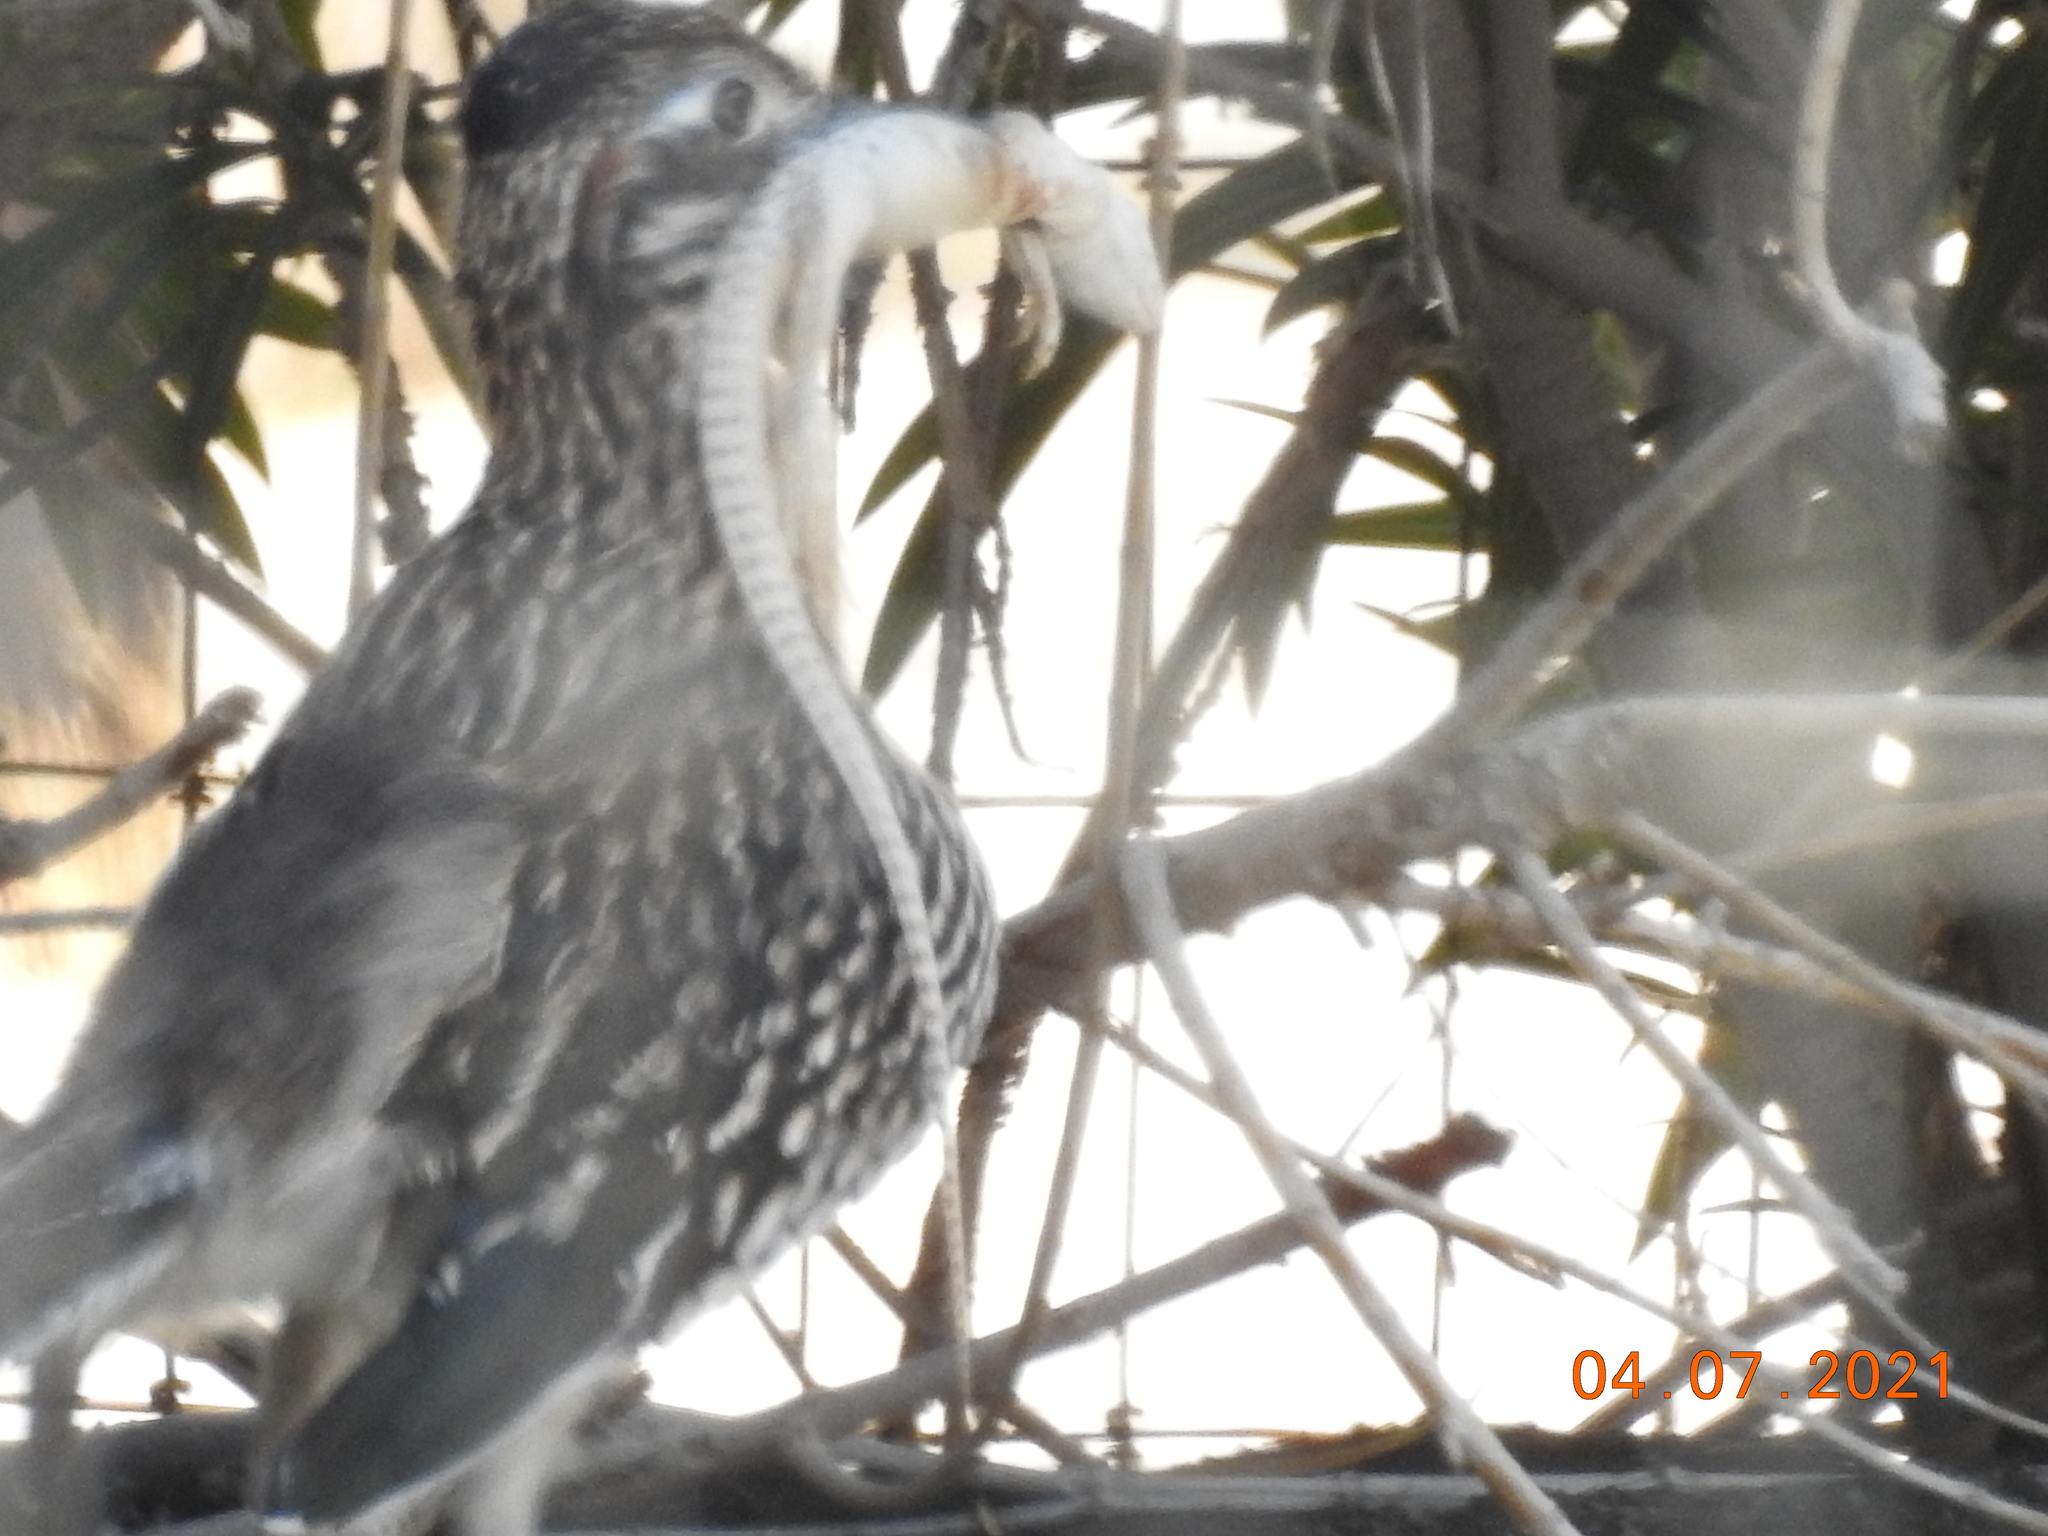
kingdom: Animalia
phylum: Chordata
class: Aves
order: Cuculiformes
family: Cuculidae
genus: Geococcyx
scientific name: Geococcyx californianus
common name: Greater roadrunner
